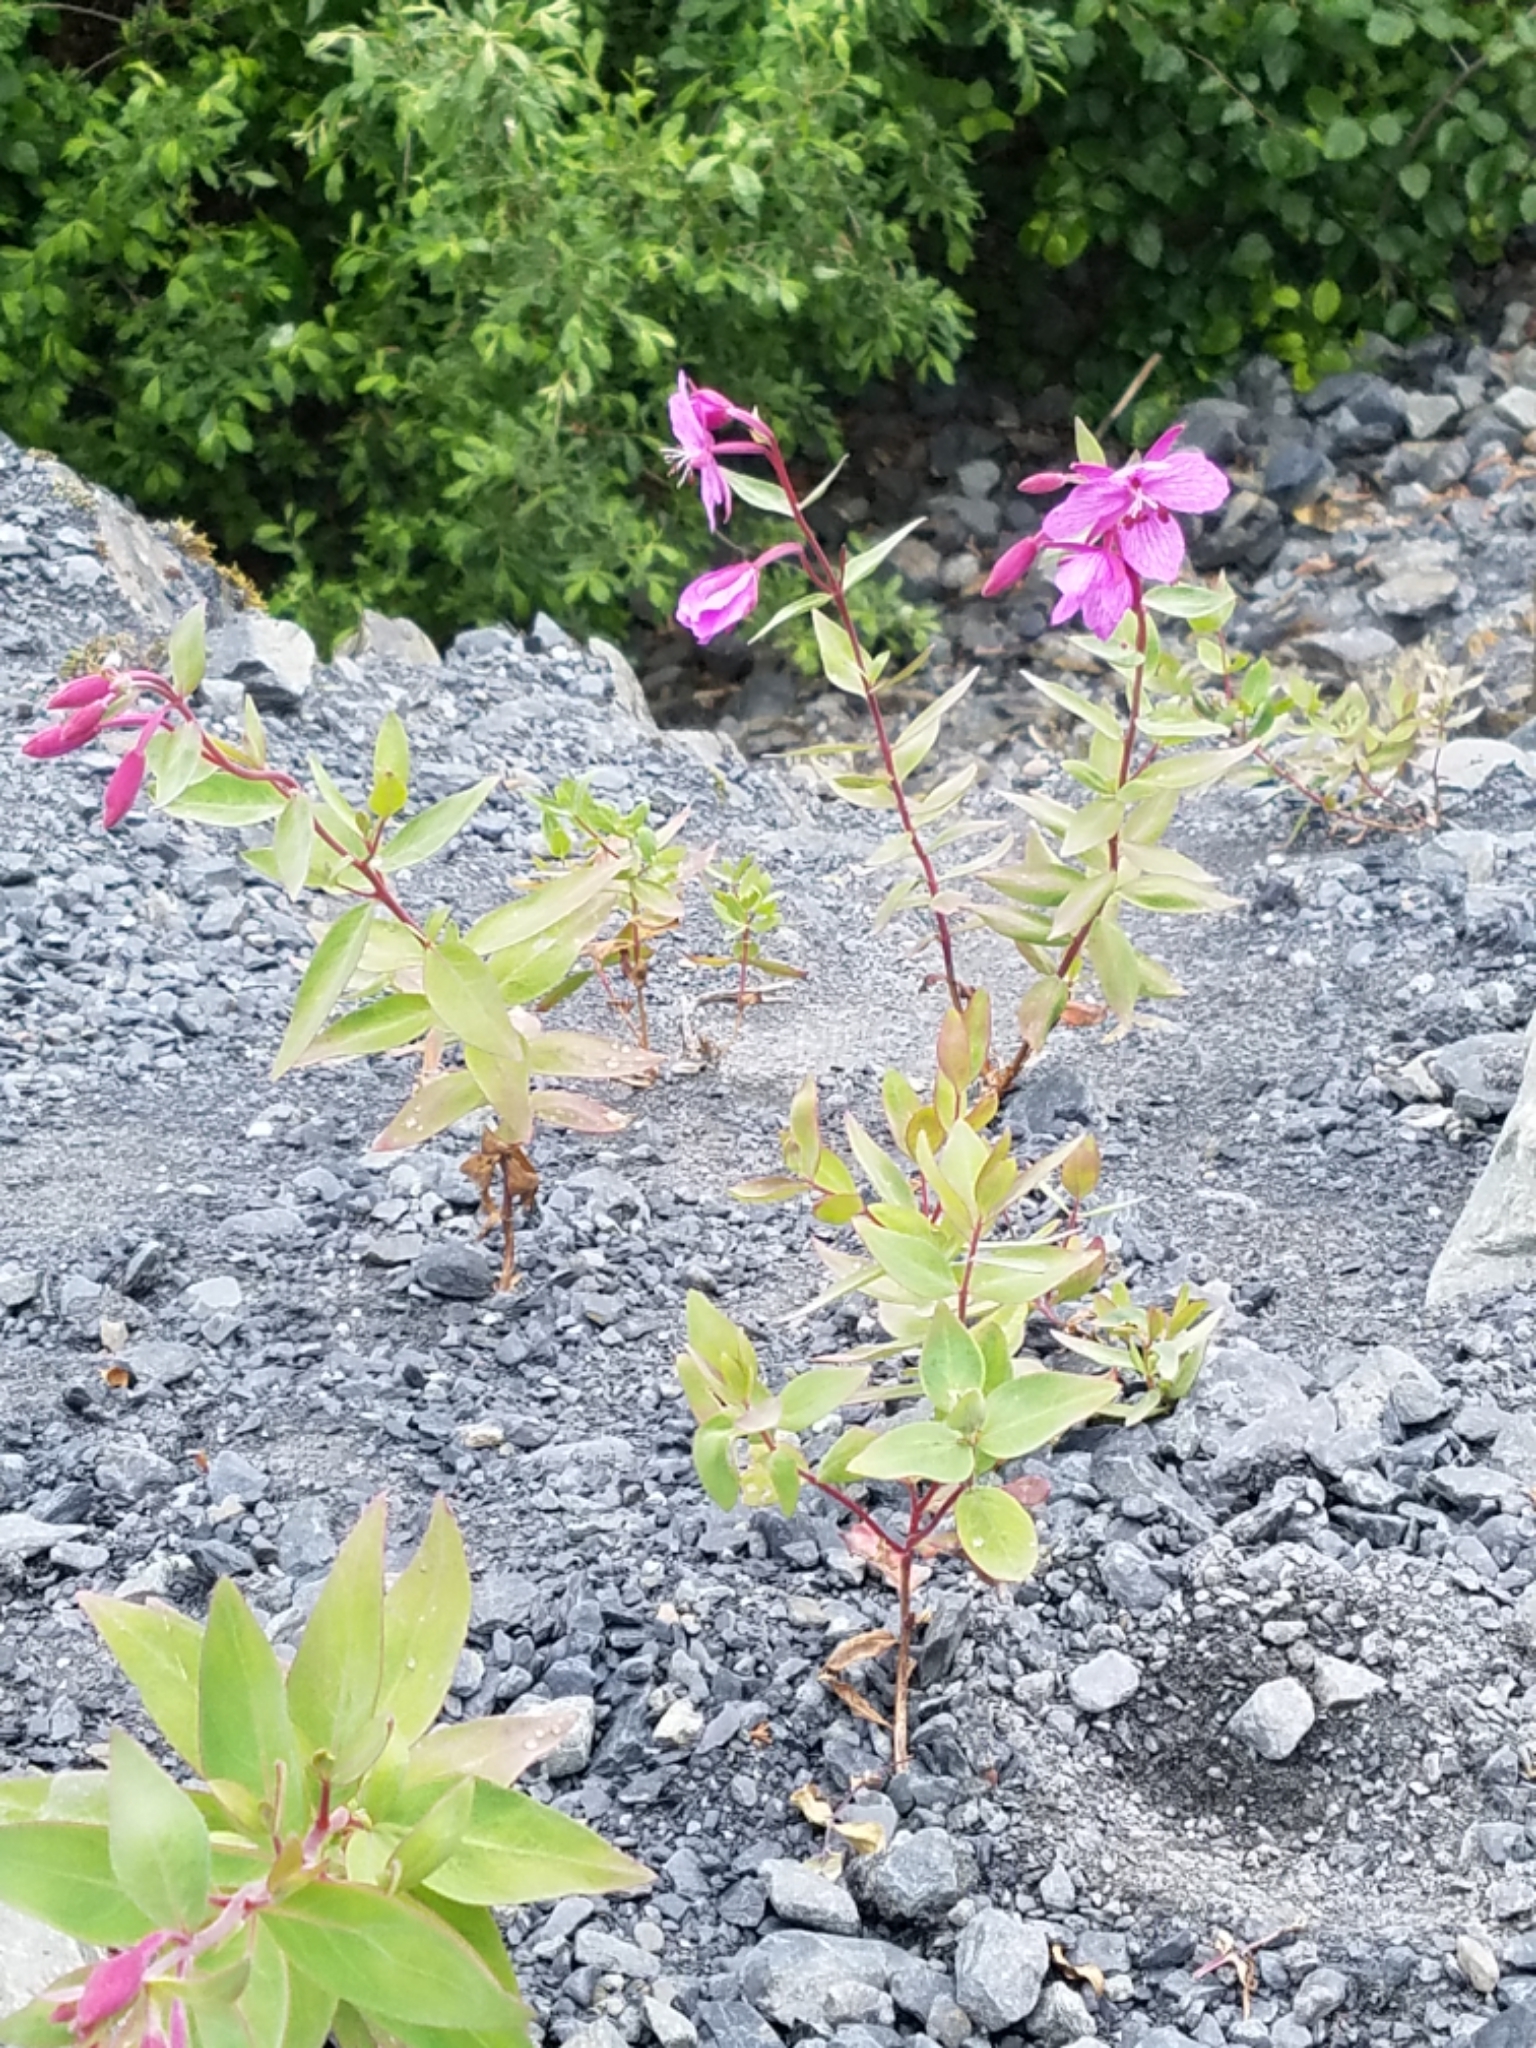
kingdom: Plantae
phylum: Tracheophyta
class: Magnoliopsida
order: Myrtales
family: Onagraceae
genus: Chamaenerion
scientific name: Chamaenerion latifolium
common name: Dwarf fireweed
